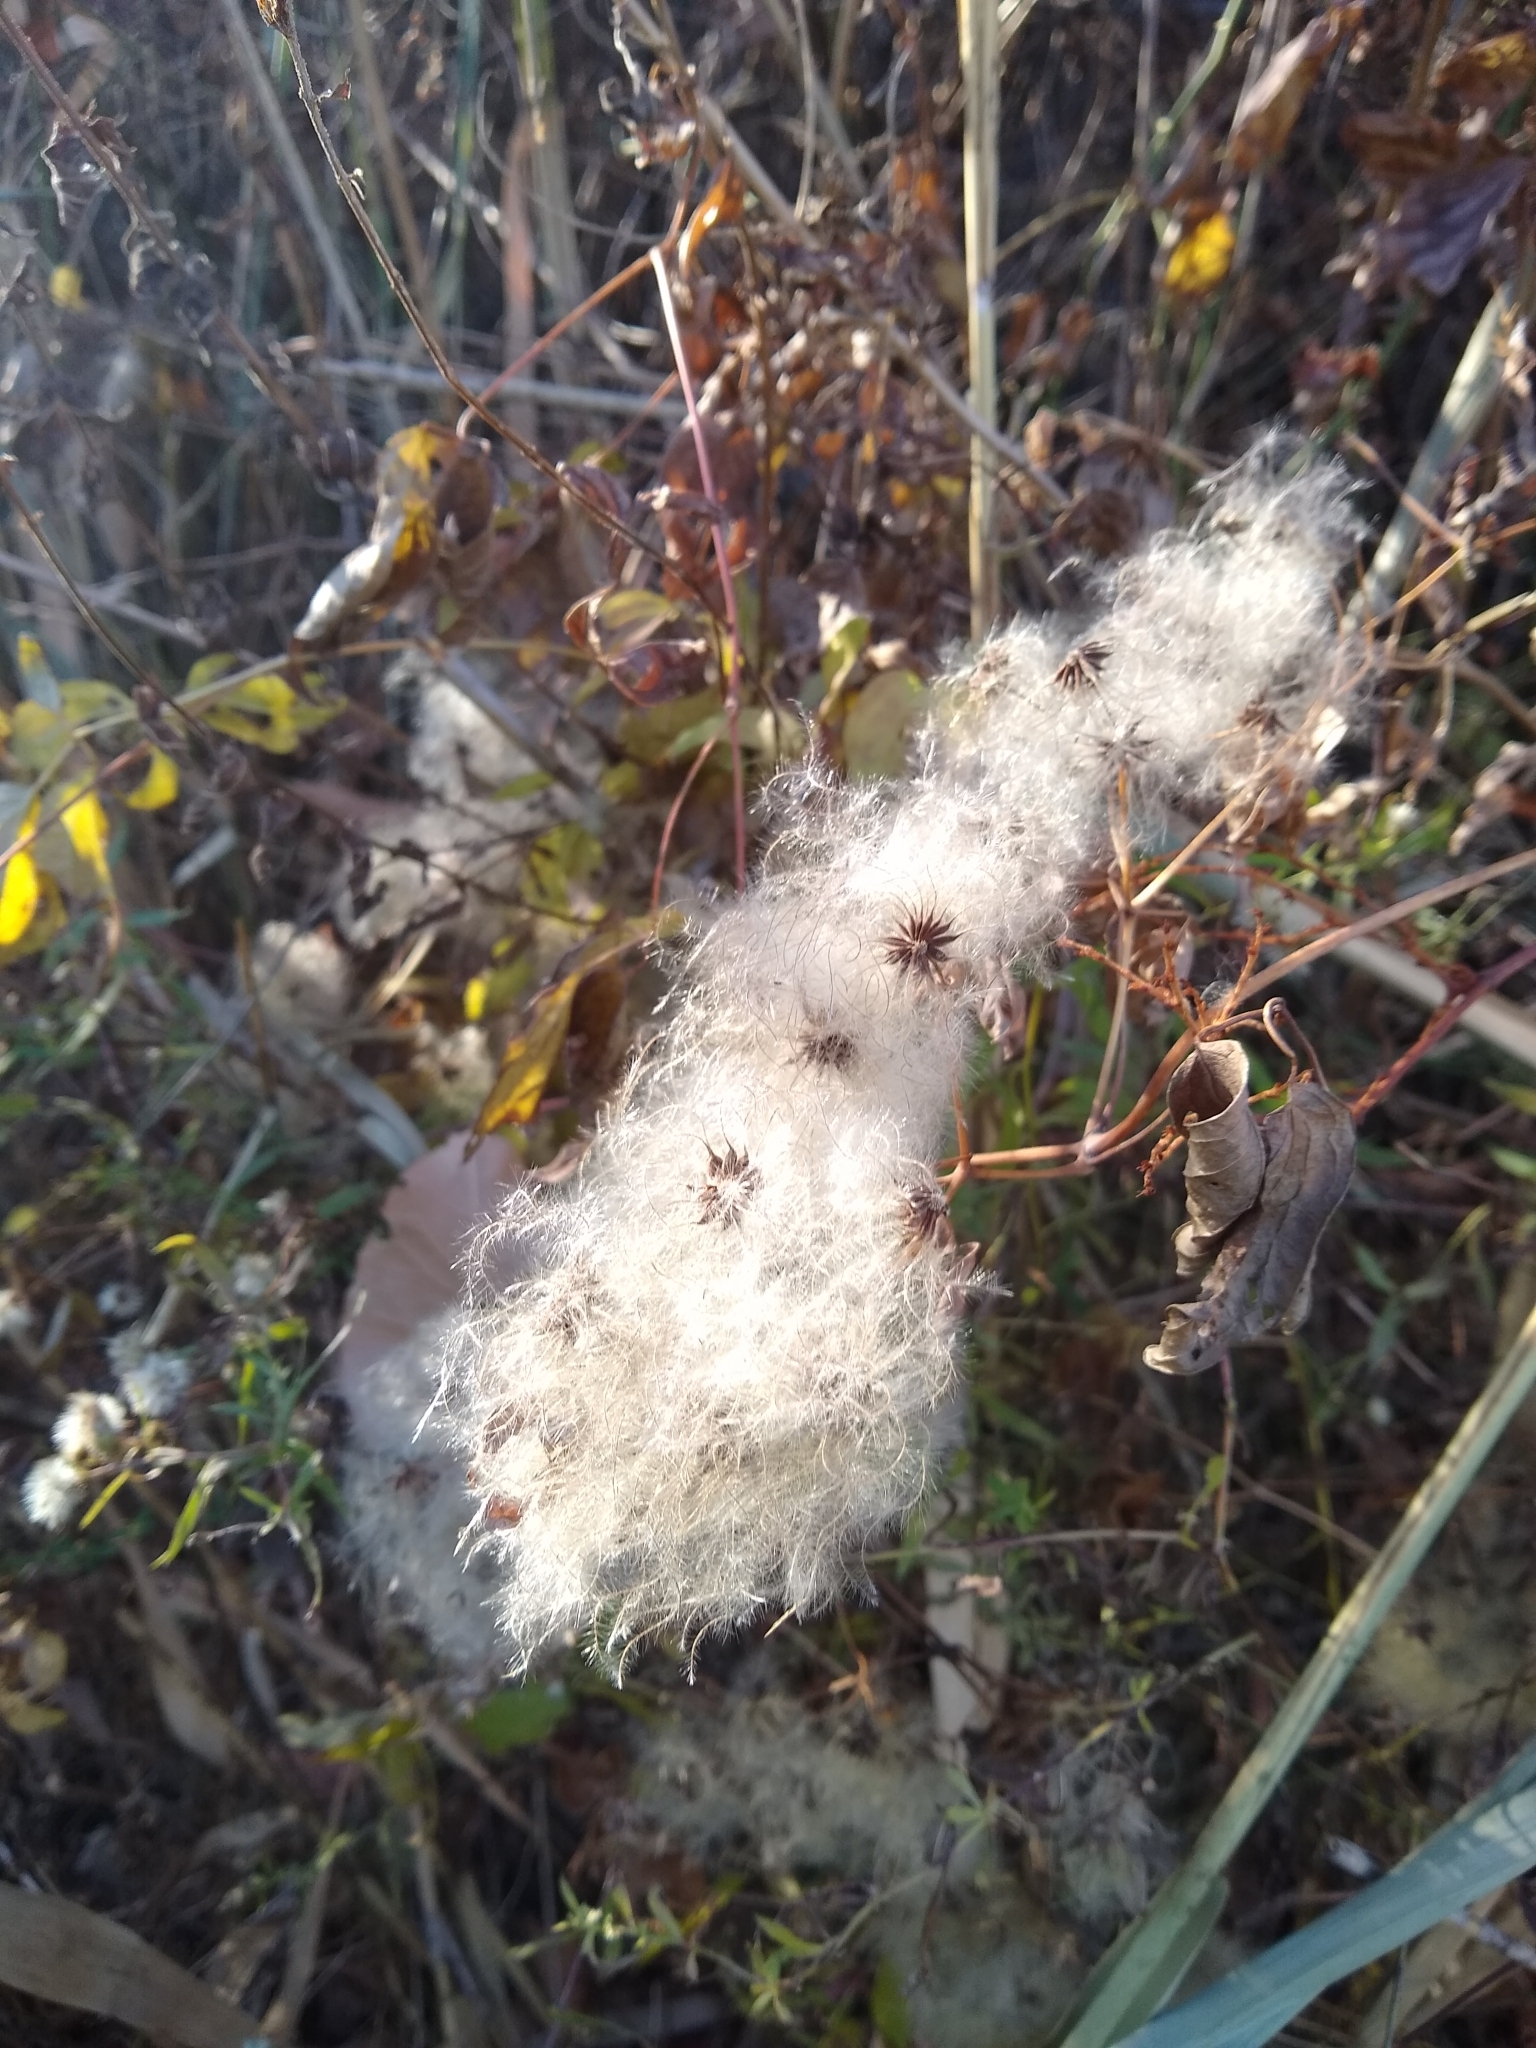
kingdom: Plantae
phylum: Tracheophyta
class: Magnoliopsida
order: Ranunculales
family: Ranunculaceae
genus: Clematis
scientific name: Clematis virginiana
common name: Virgin's-bower
